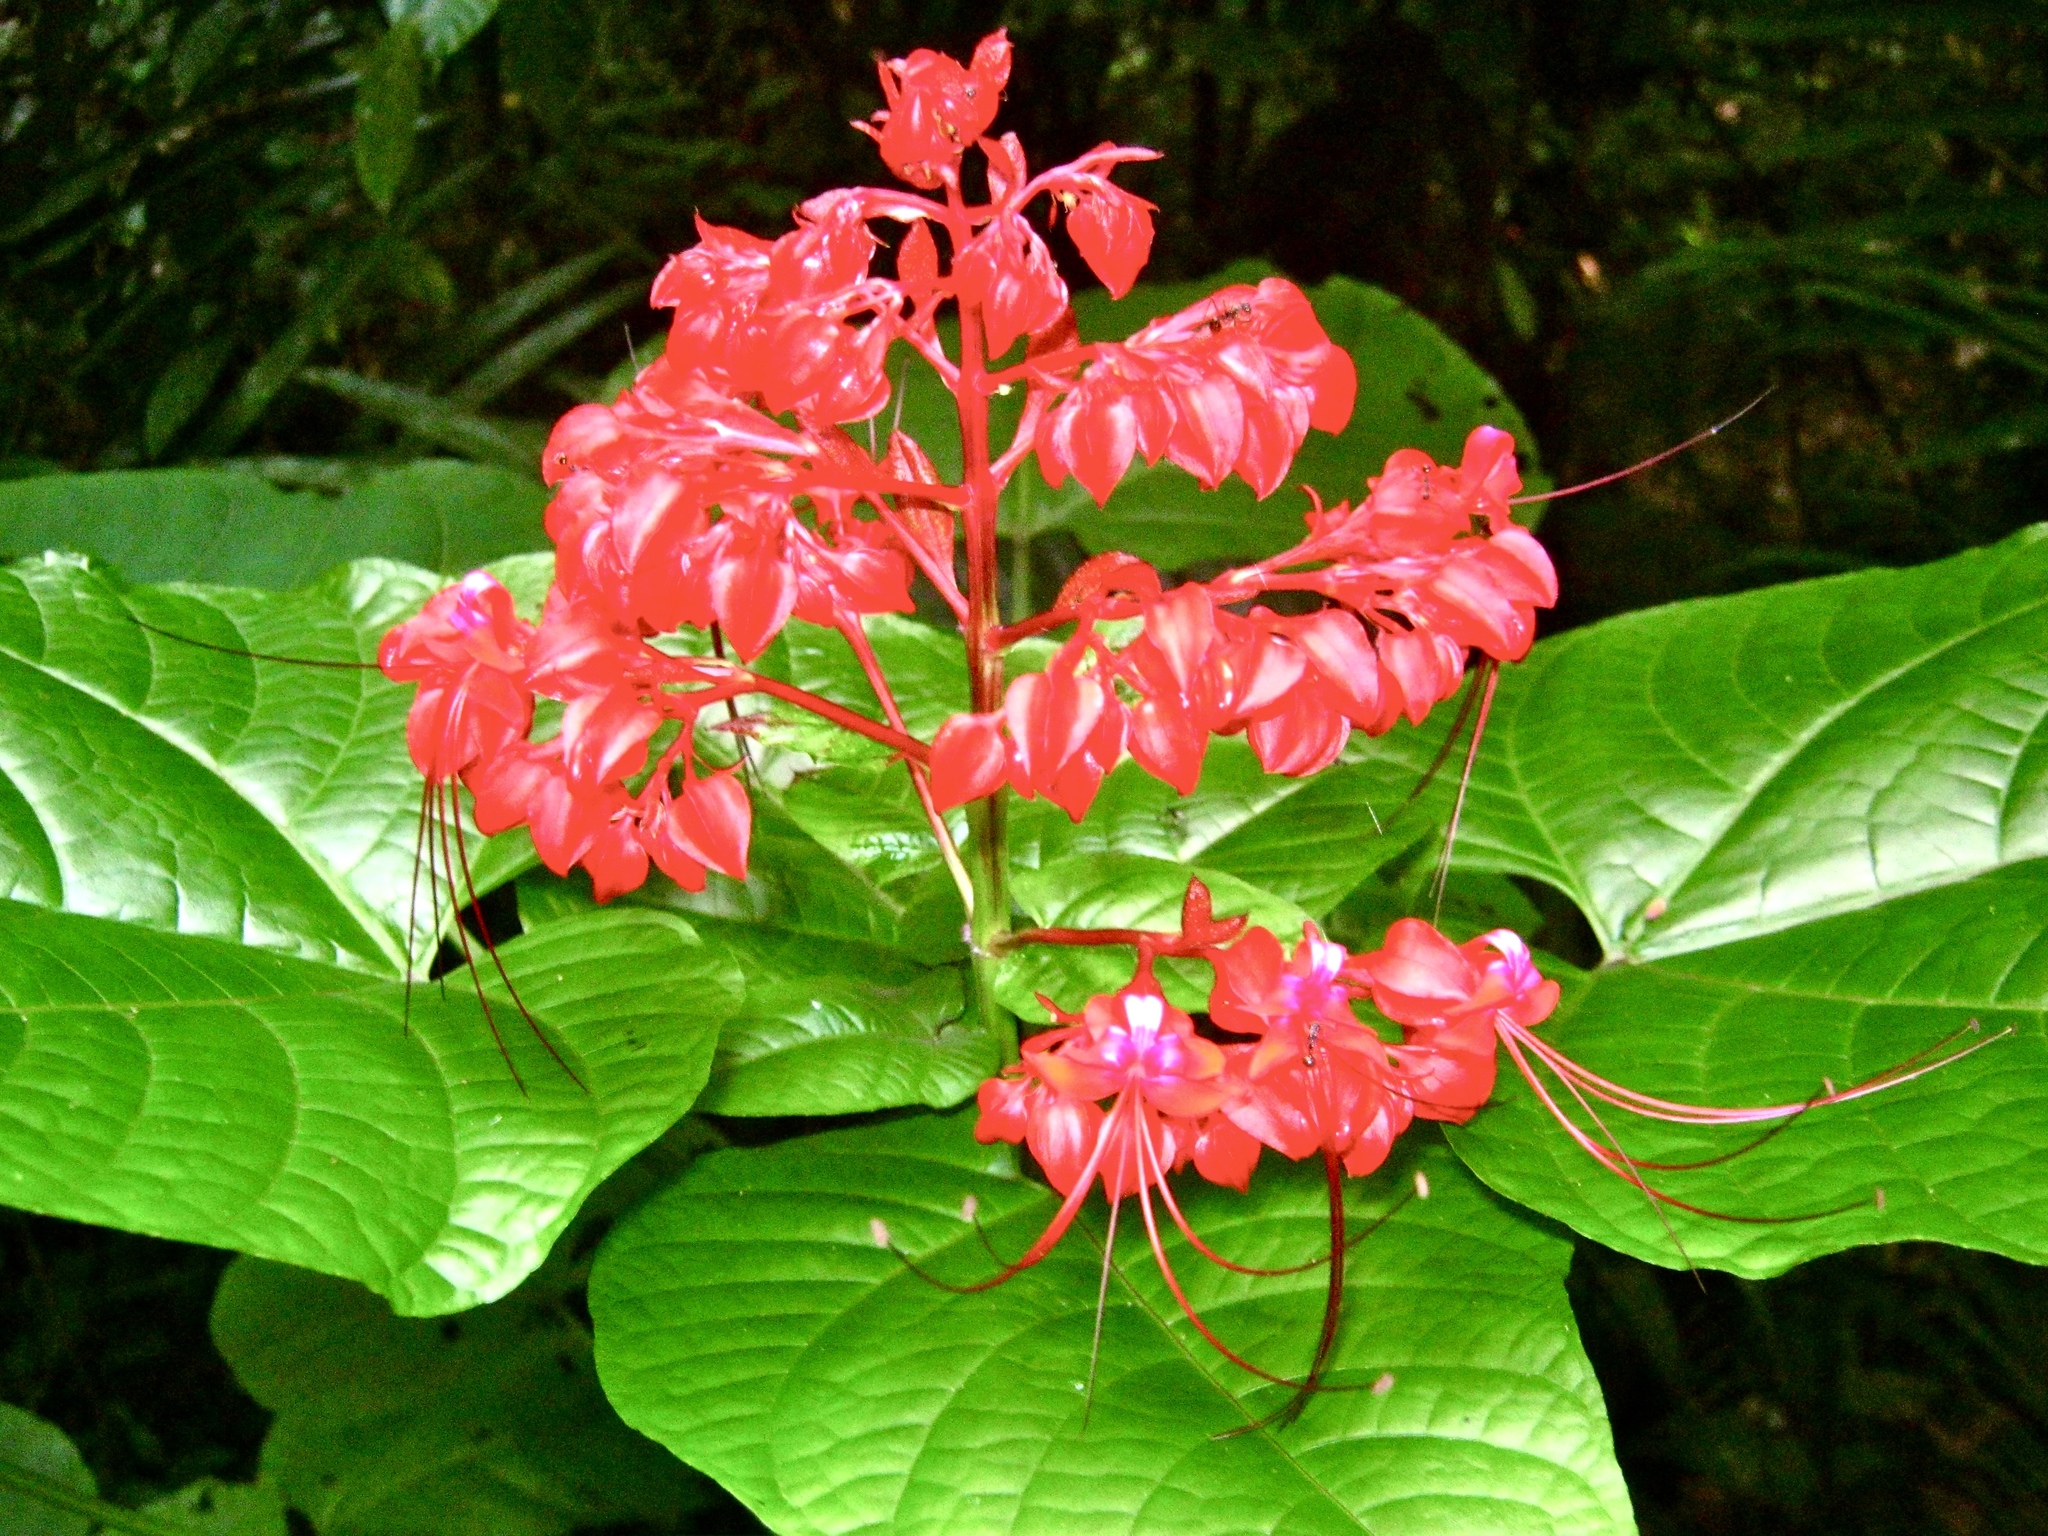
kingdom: Plantae
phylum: Tracheophyta
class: Magnoliopsida
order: Lamiales
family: Lamiaceae
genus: Clerodendrum
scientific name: Clerodendrum paniculatum
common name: Pagoda-flower
